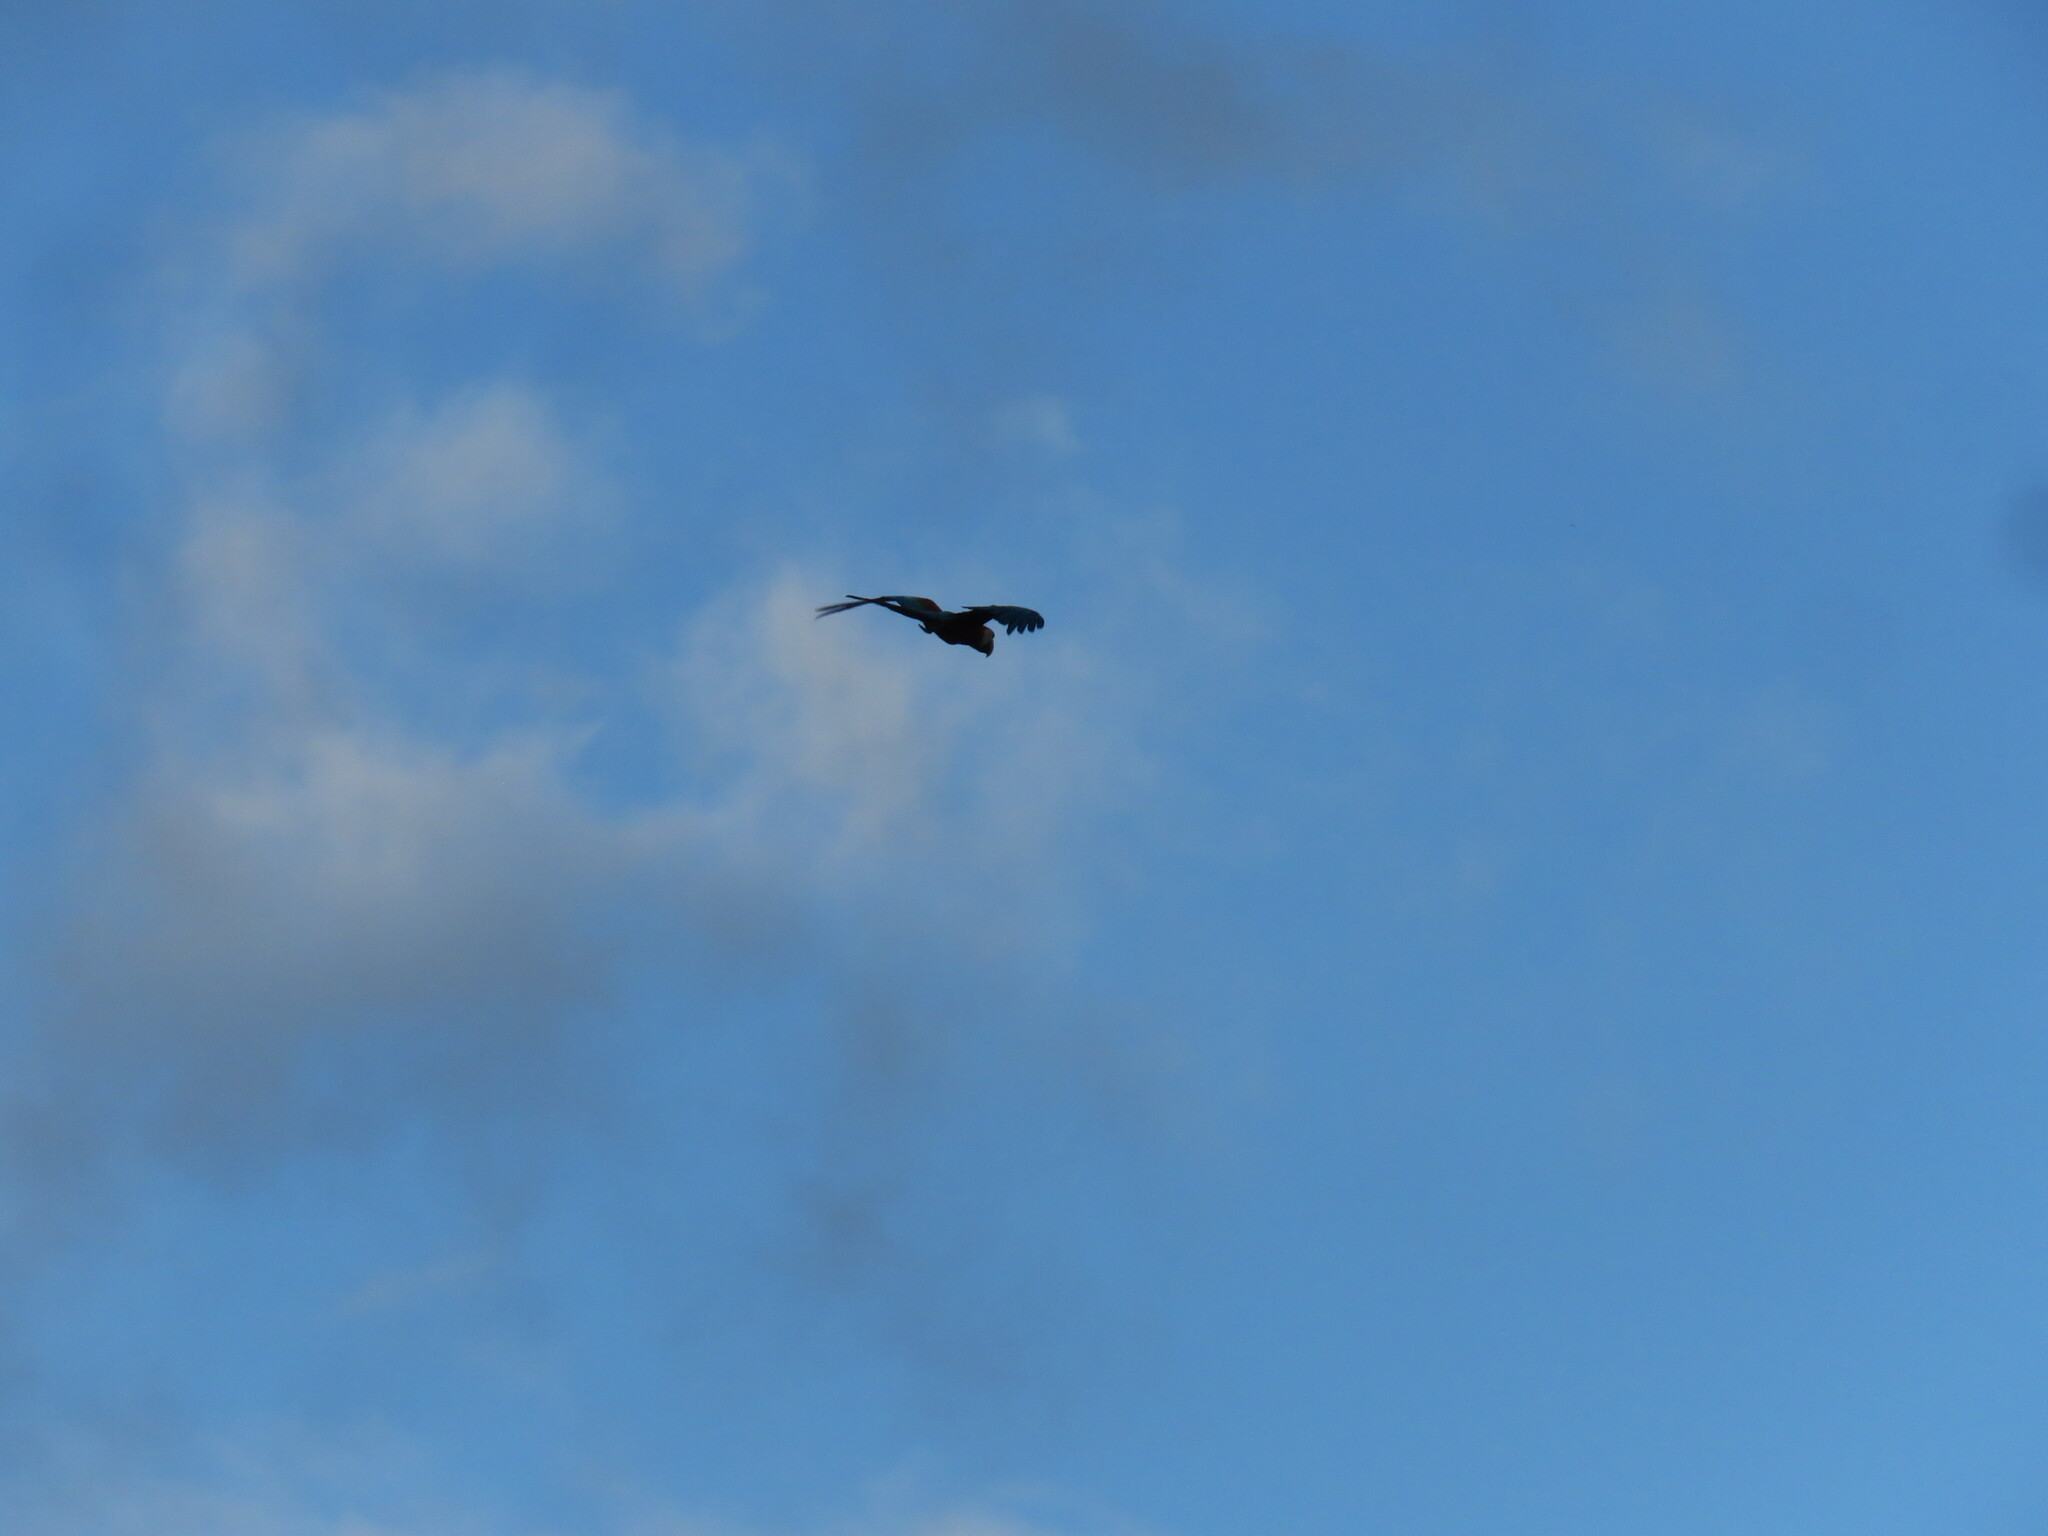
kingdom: Animalia
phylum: Chordata
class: Aves
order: Psittaciformes
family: Psittacidae
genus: Ara
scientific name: Ara chloropterus
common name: Red-and-green macaw
